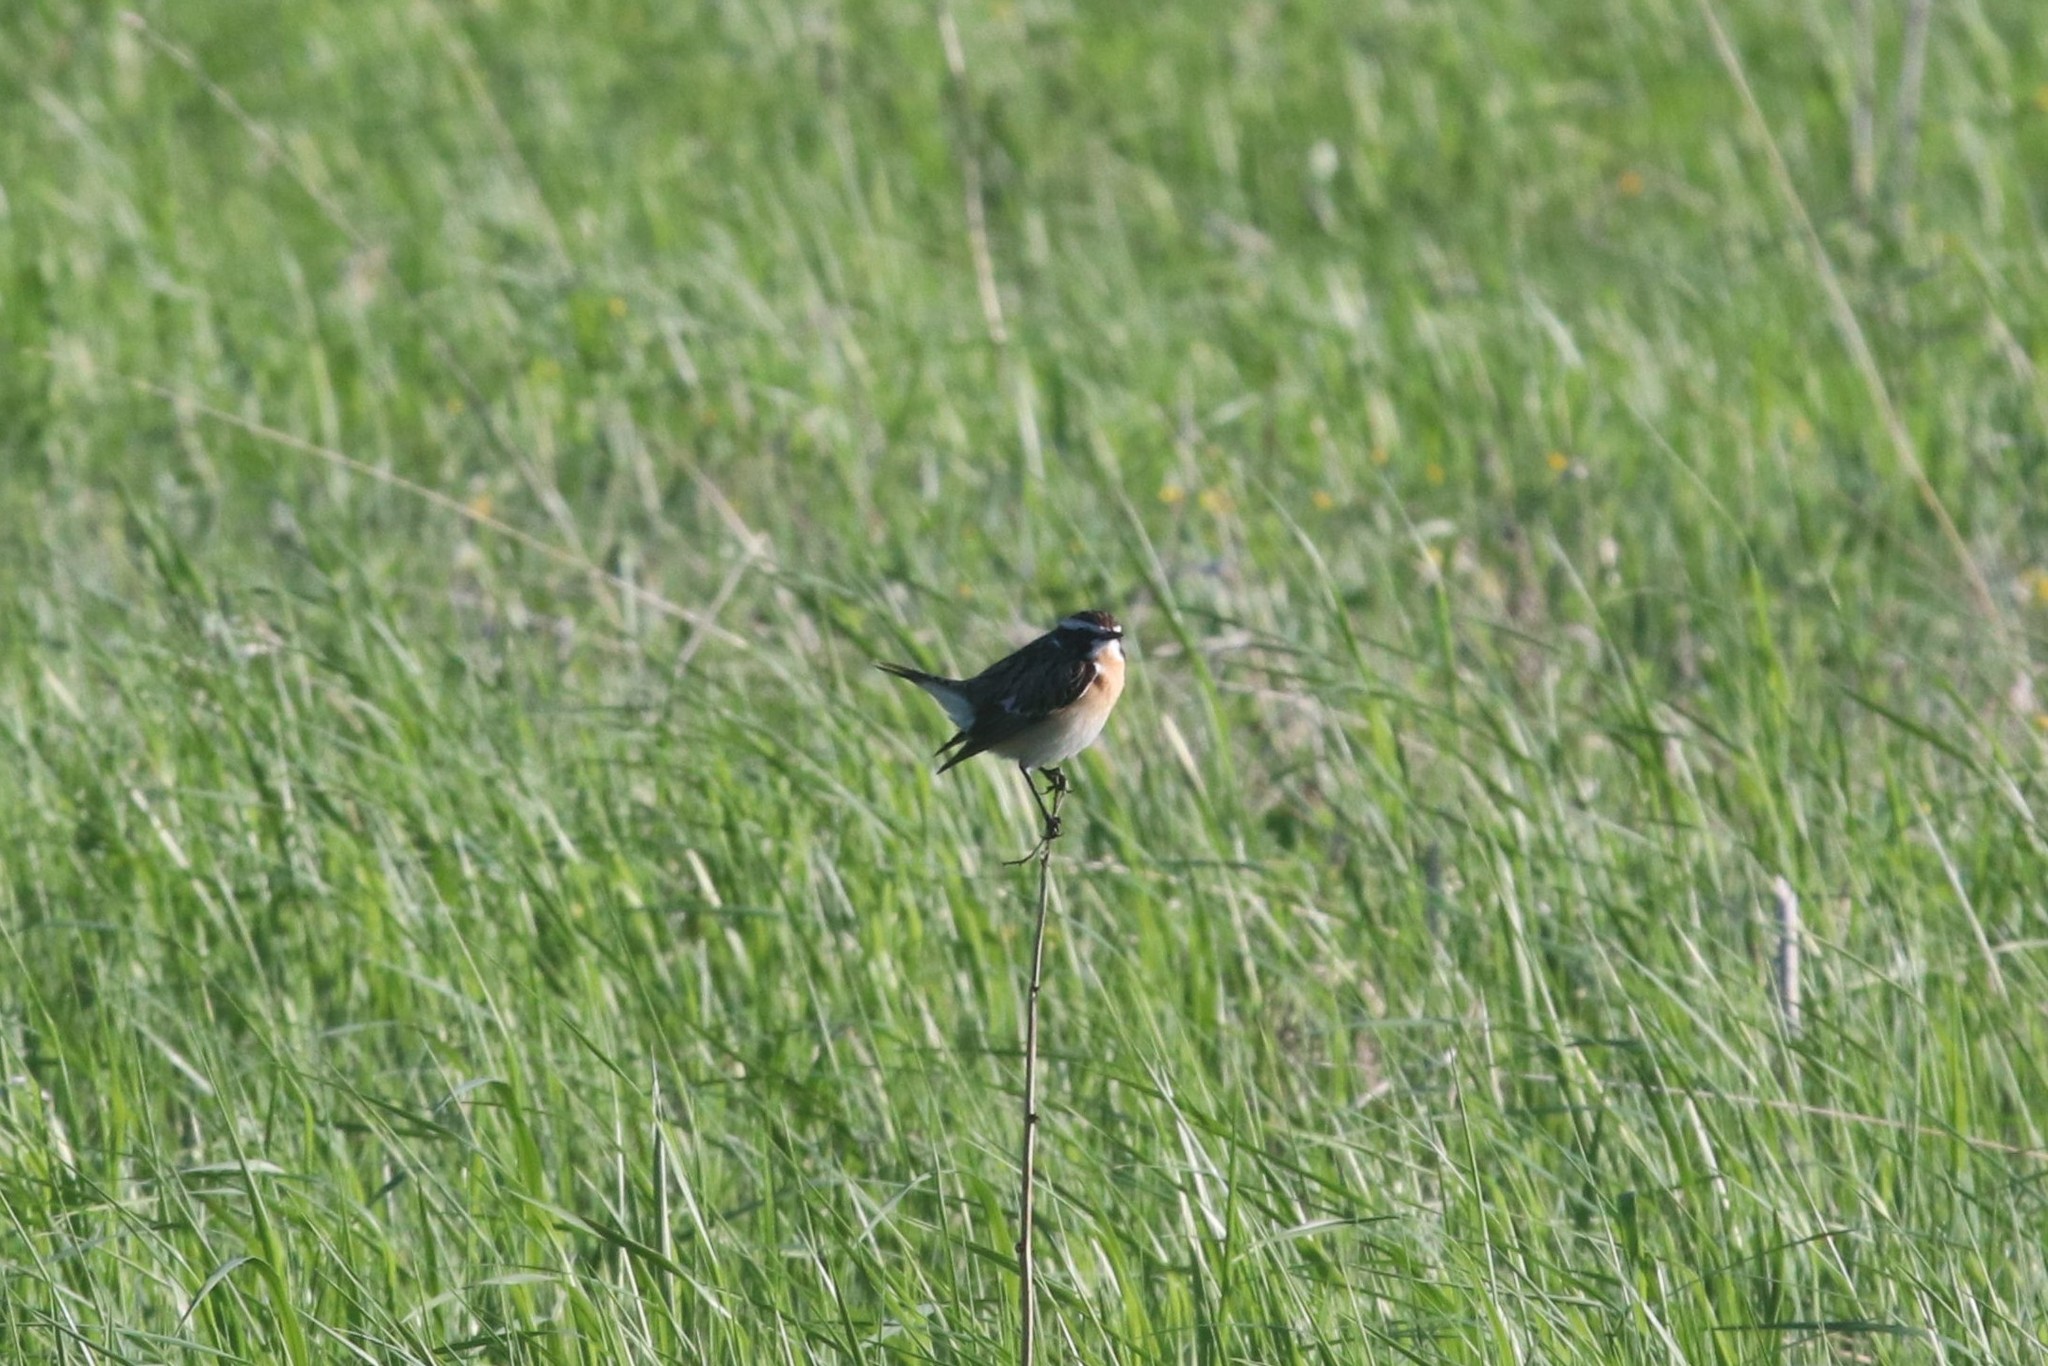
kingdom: Animalia
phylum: Chordata
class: Aves
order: Passeriformes
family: Muscicapidae
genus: Saxicola
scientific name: Saxicola rubetra
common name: Whinchat
